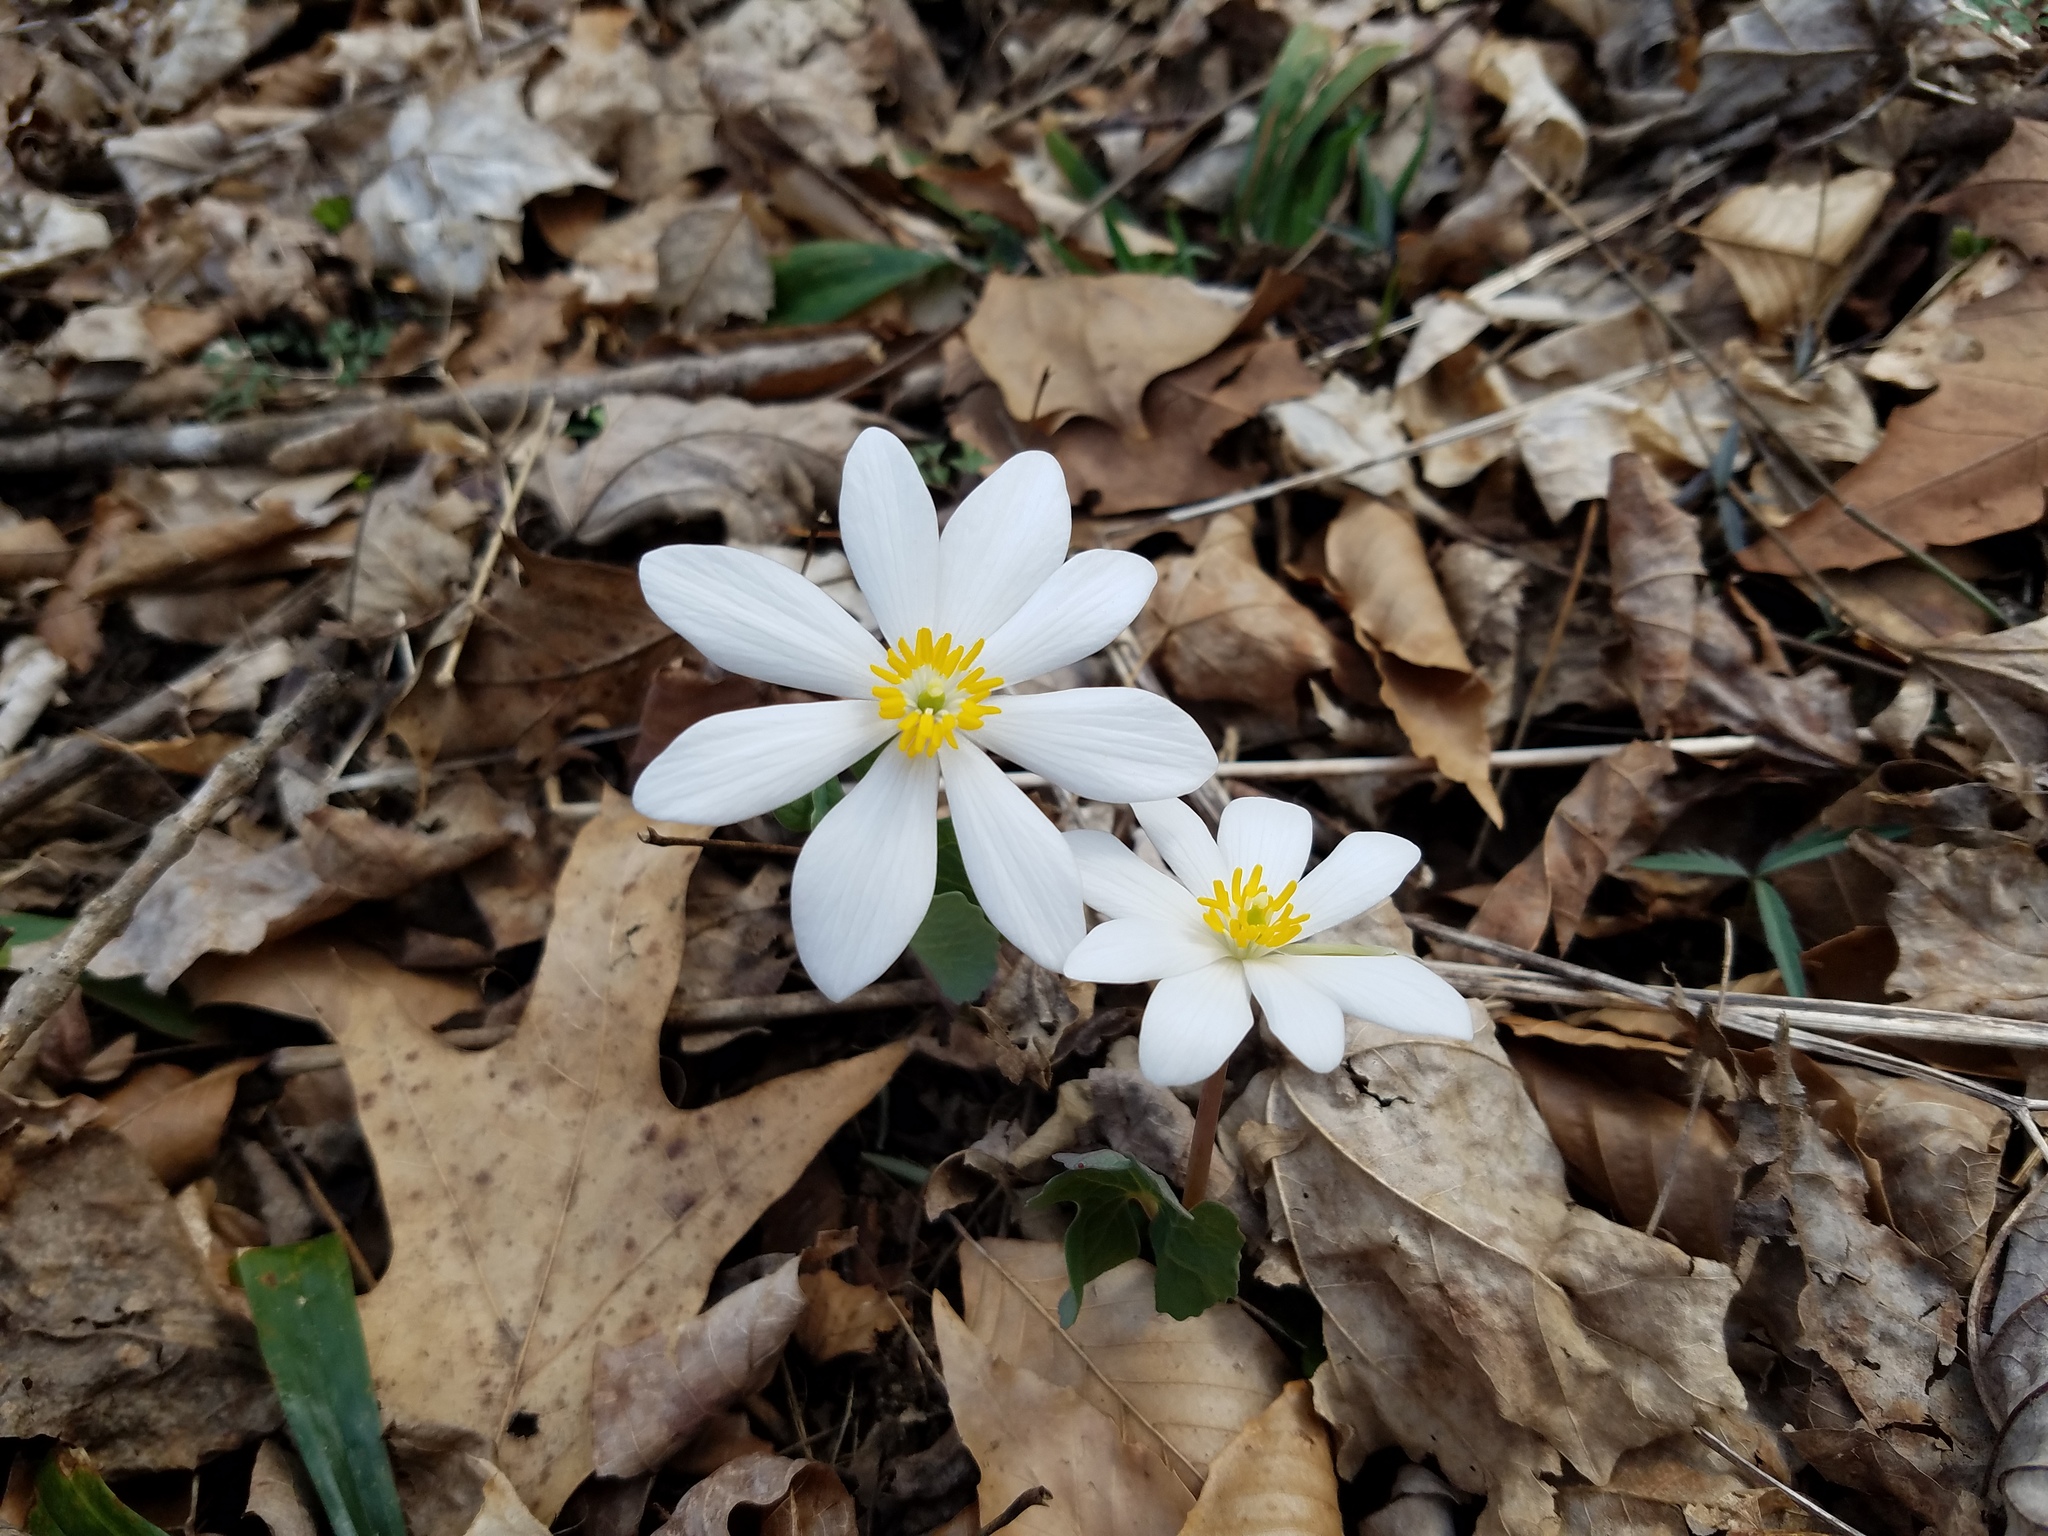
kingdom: Plantae
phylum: Tracheophyta
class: Magnoliopsida
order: Ranunculales
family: Papaveraceae
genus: Sanguinaria
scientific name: Sanguinaria canadensis
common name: Bloodroot
